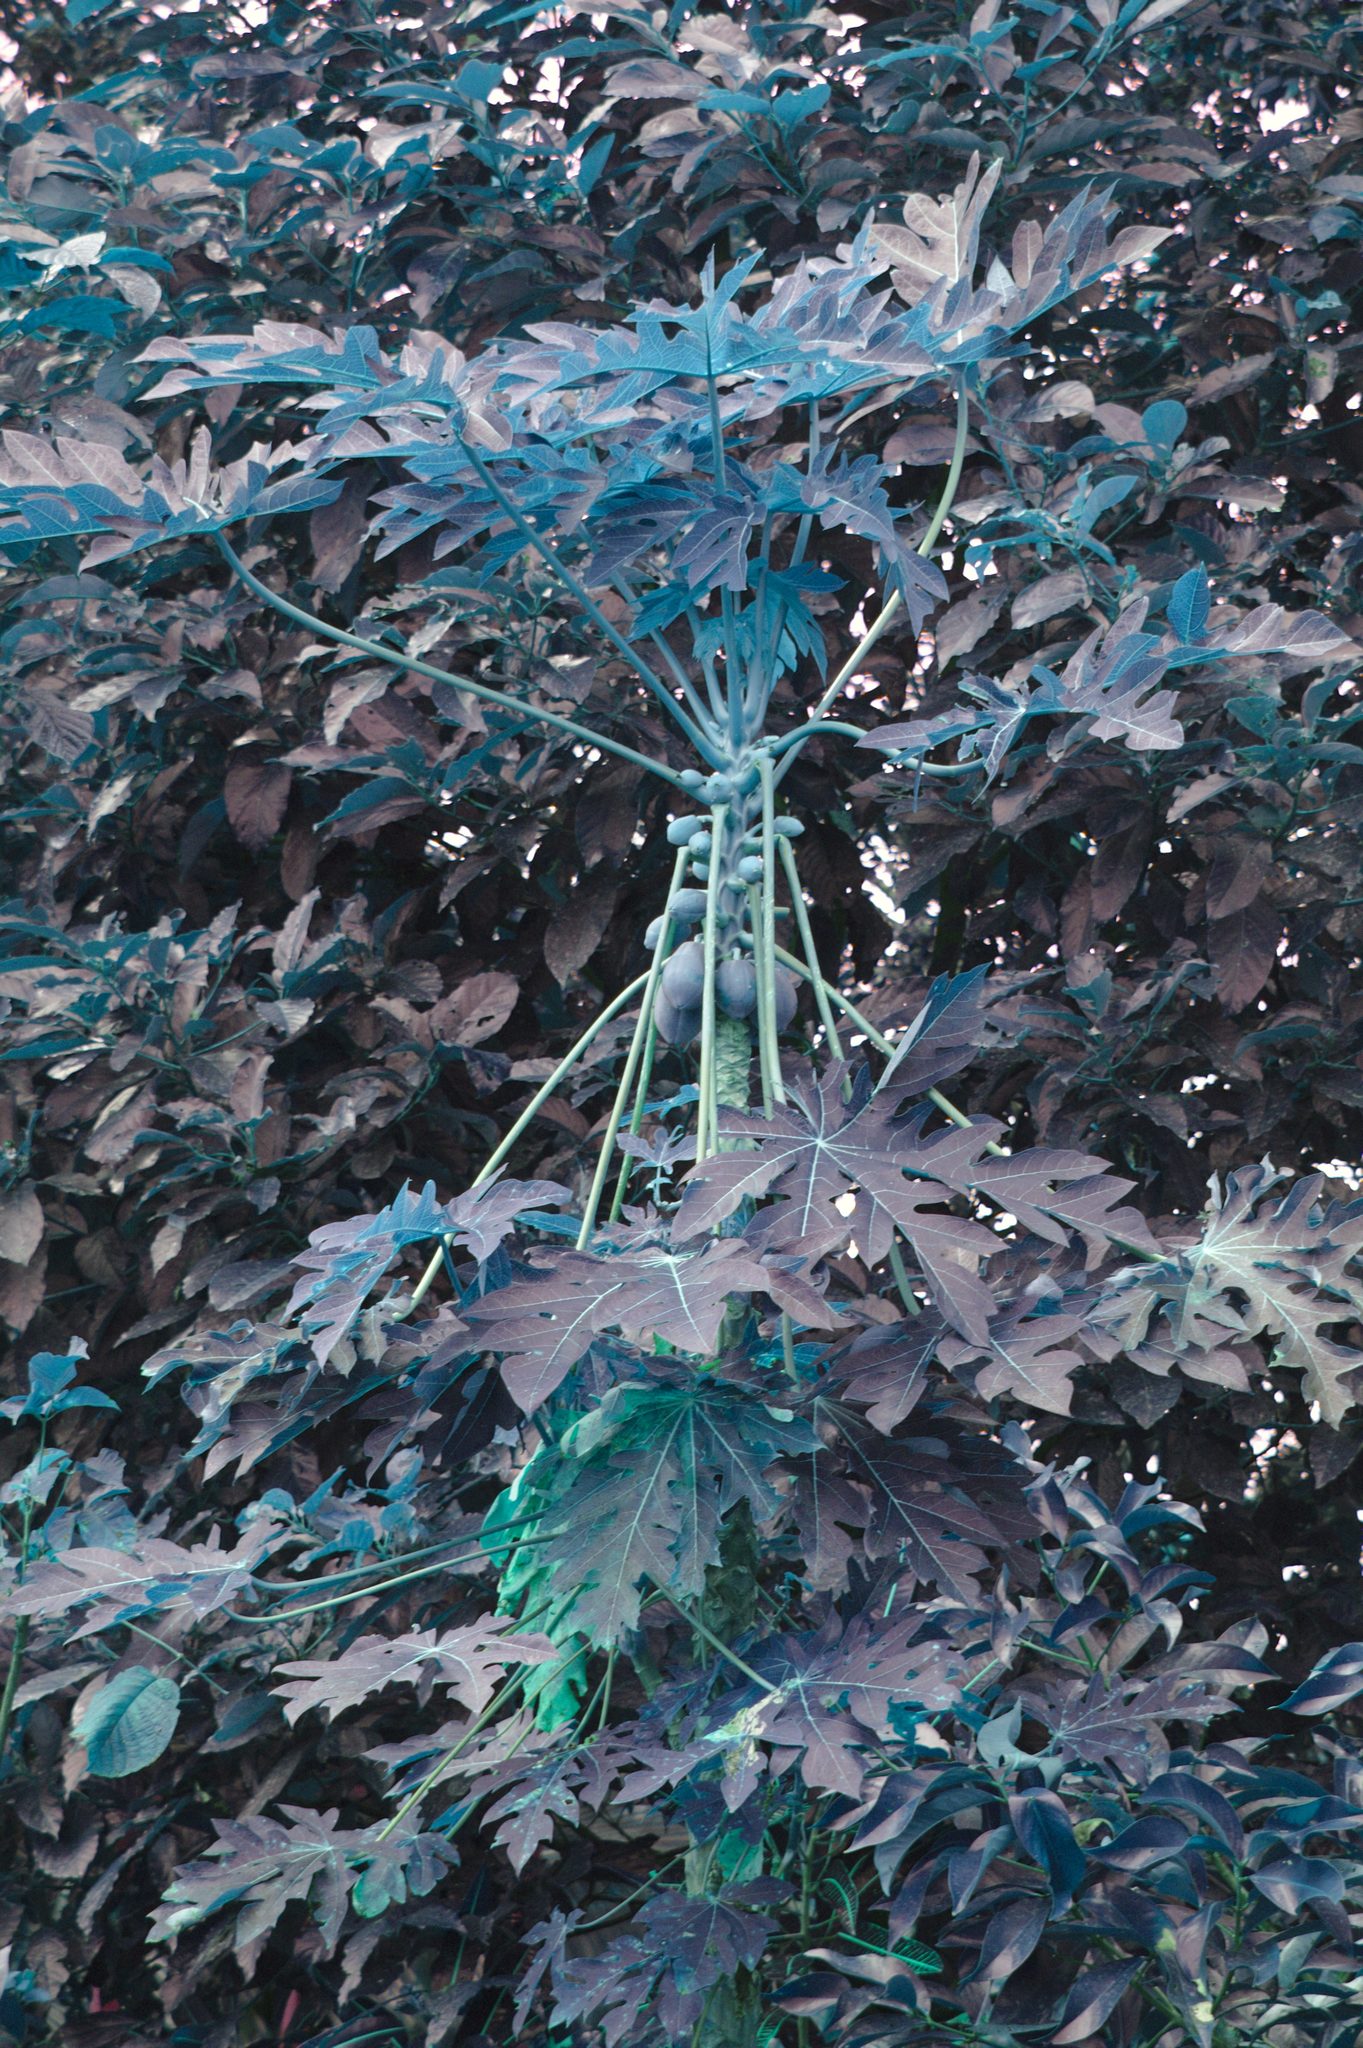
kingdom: Plantae
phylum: Tracheophyta
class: Magnoliopsida
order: Brassicales
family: Caricaceae
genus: Carica
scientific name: Carica papaya
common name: Papaya
